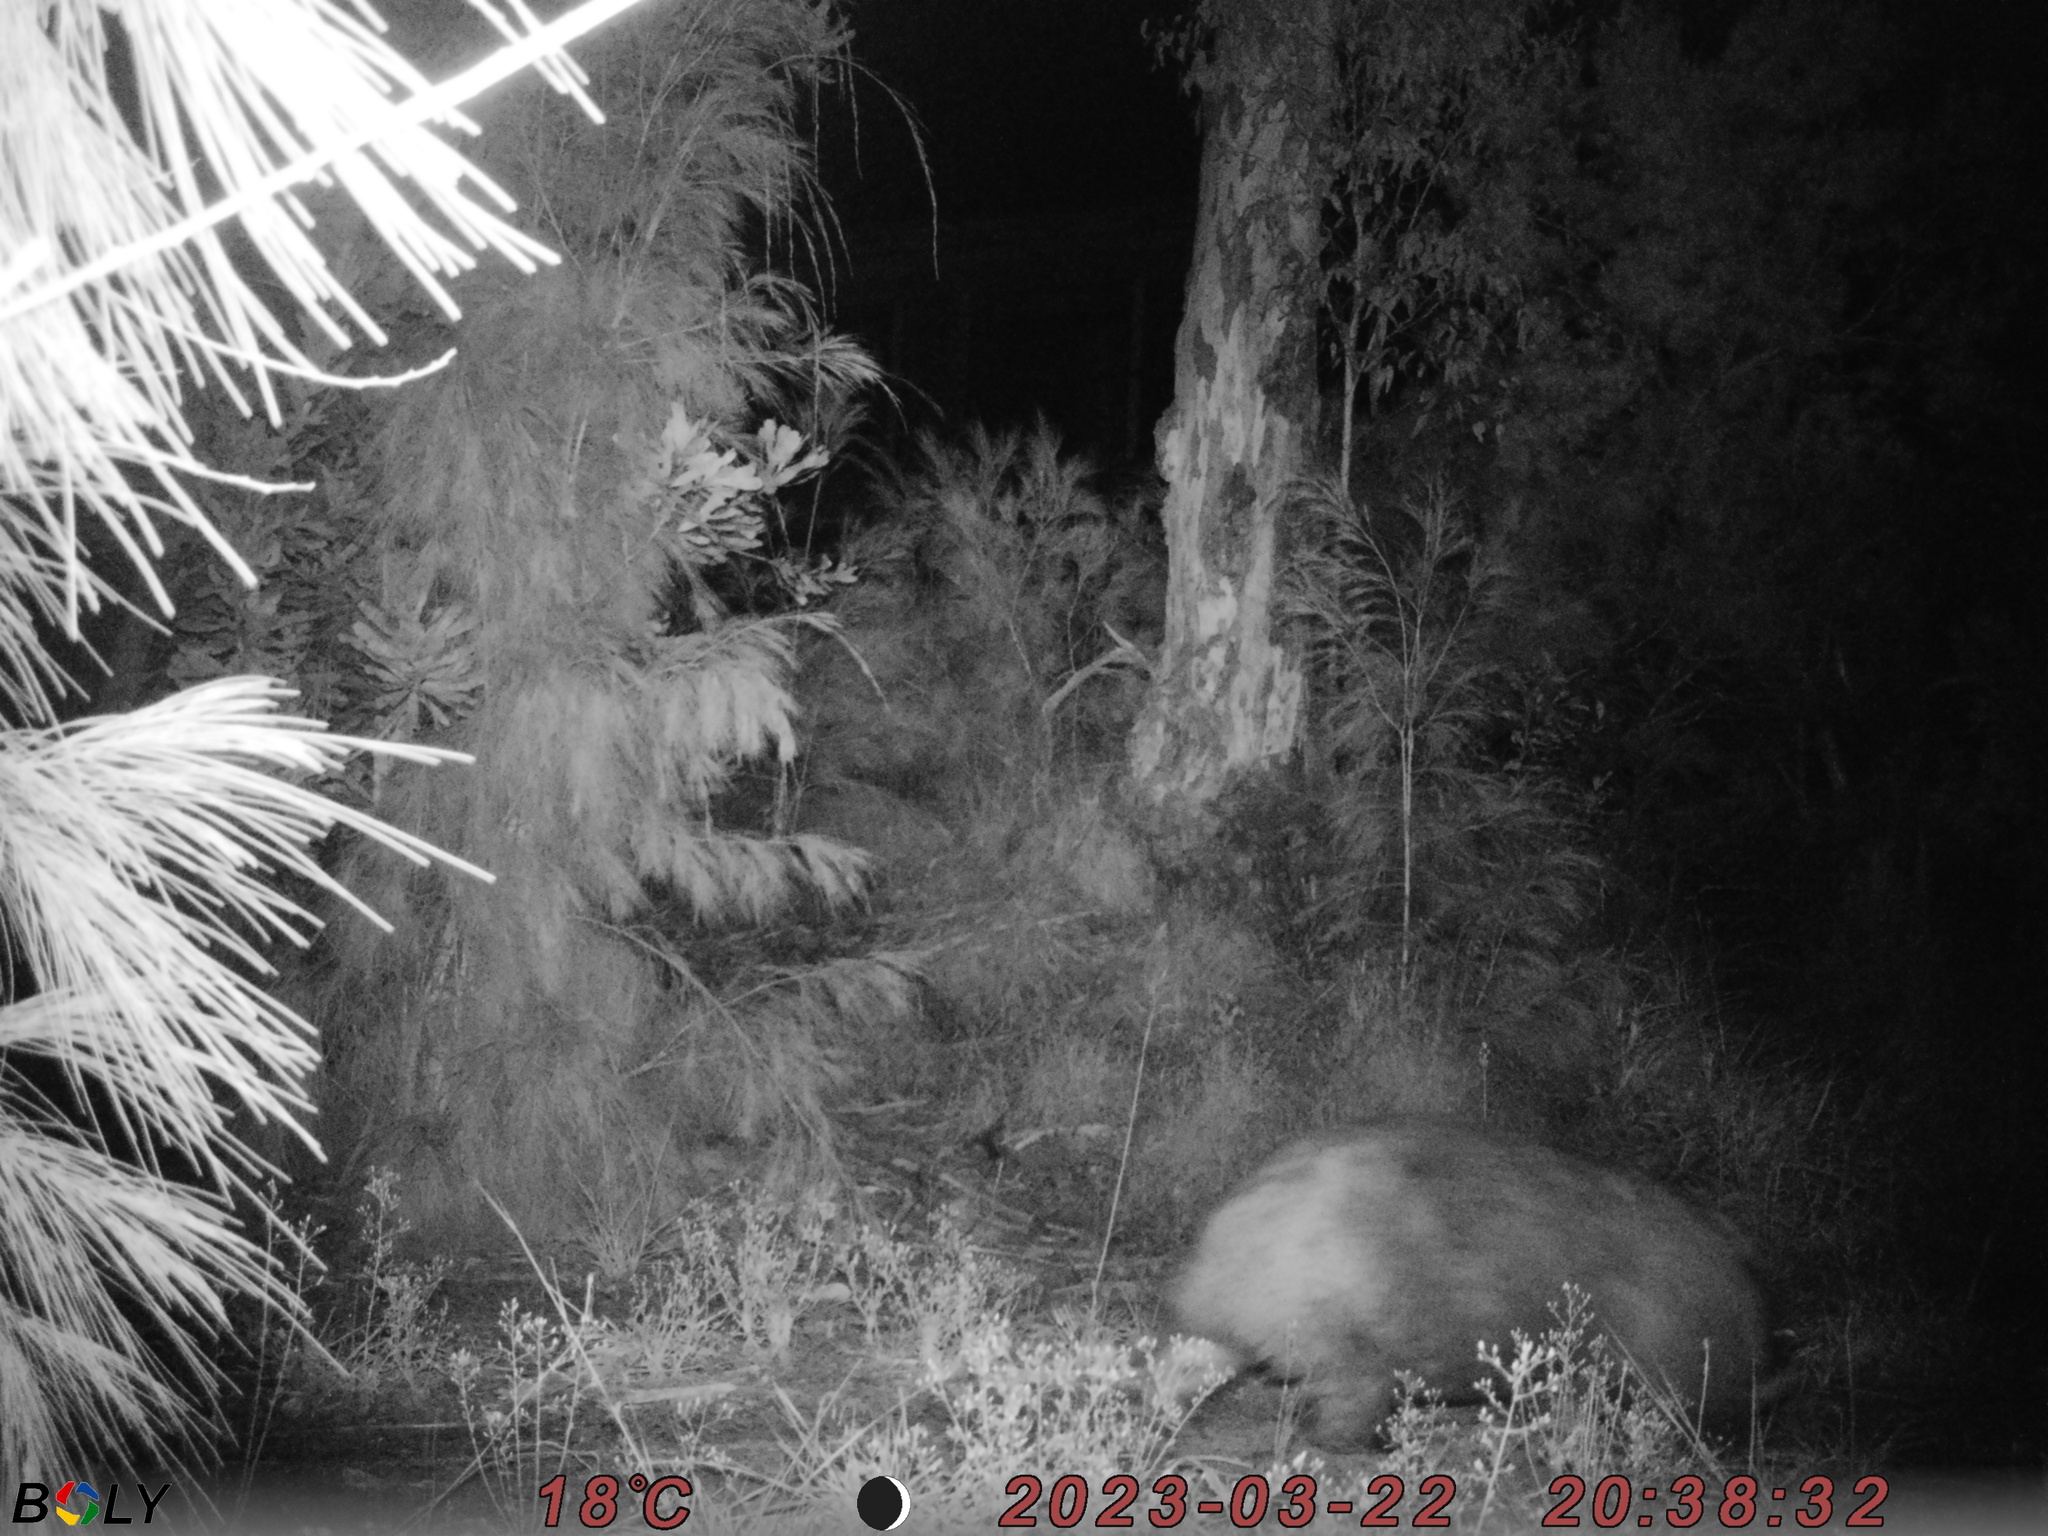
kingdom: Animalia
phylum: Chordata
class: Mammalia
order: Diprotodontia
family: Vombatidae
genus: Vombatus
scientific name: Vombatus ursinus
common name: Common wombat
